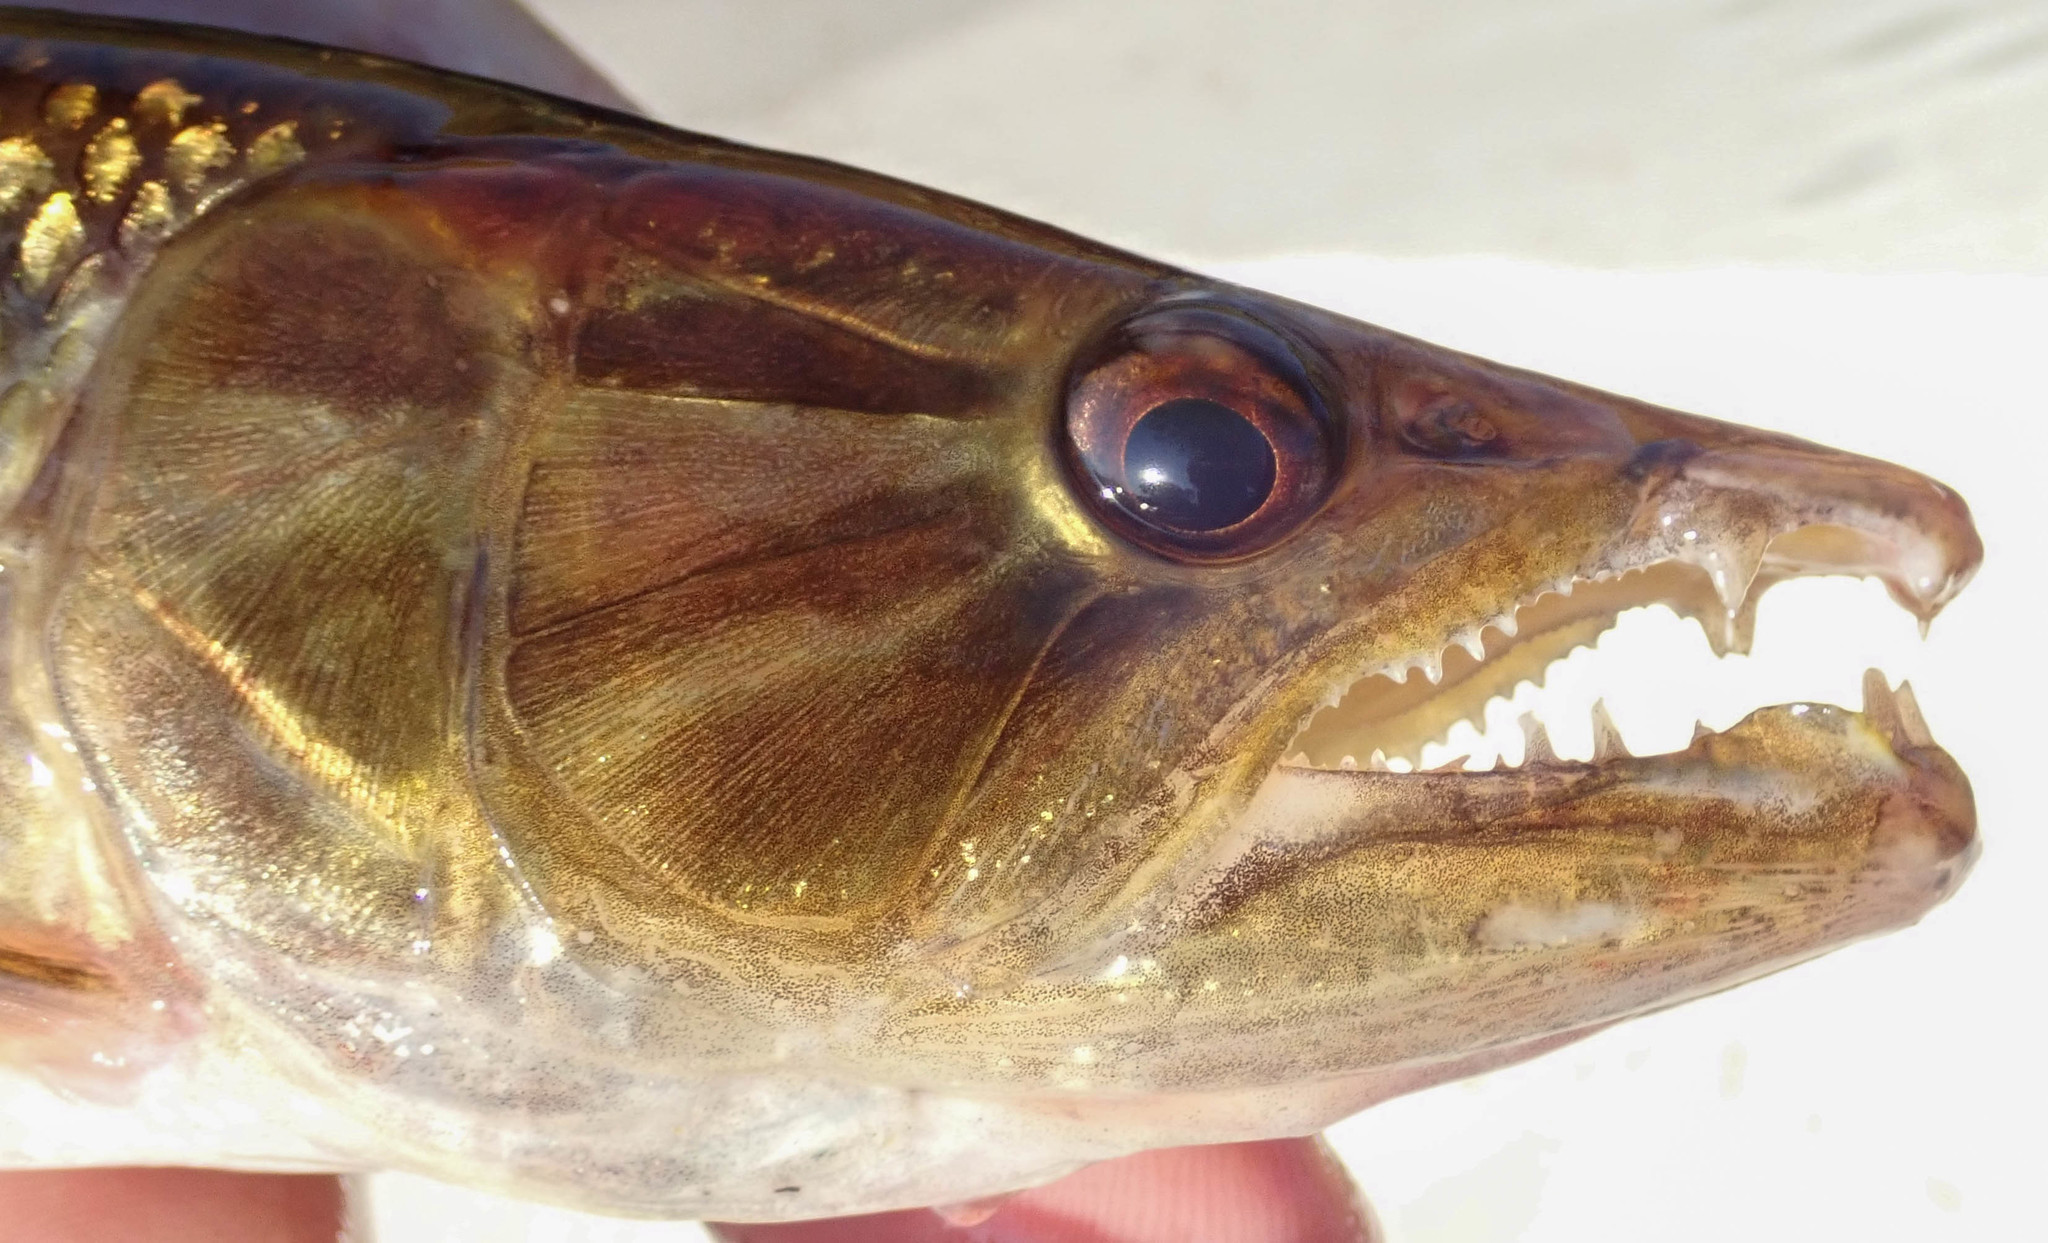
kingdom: Animalia
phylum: Chordata
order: Characiformes
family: Hepsetidae
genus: Hepsetus
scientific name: Hepsetus cuvieri
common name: African pike
